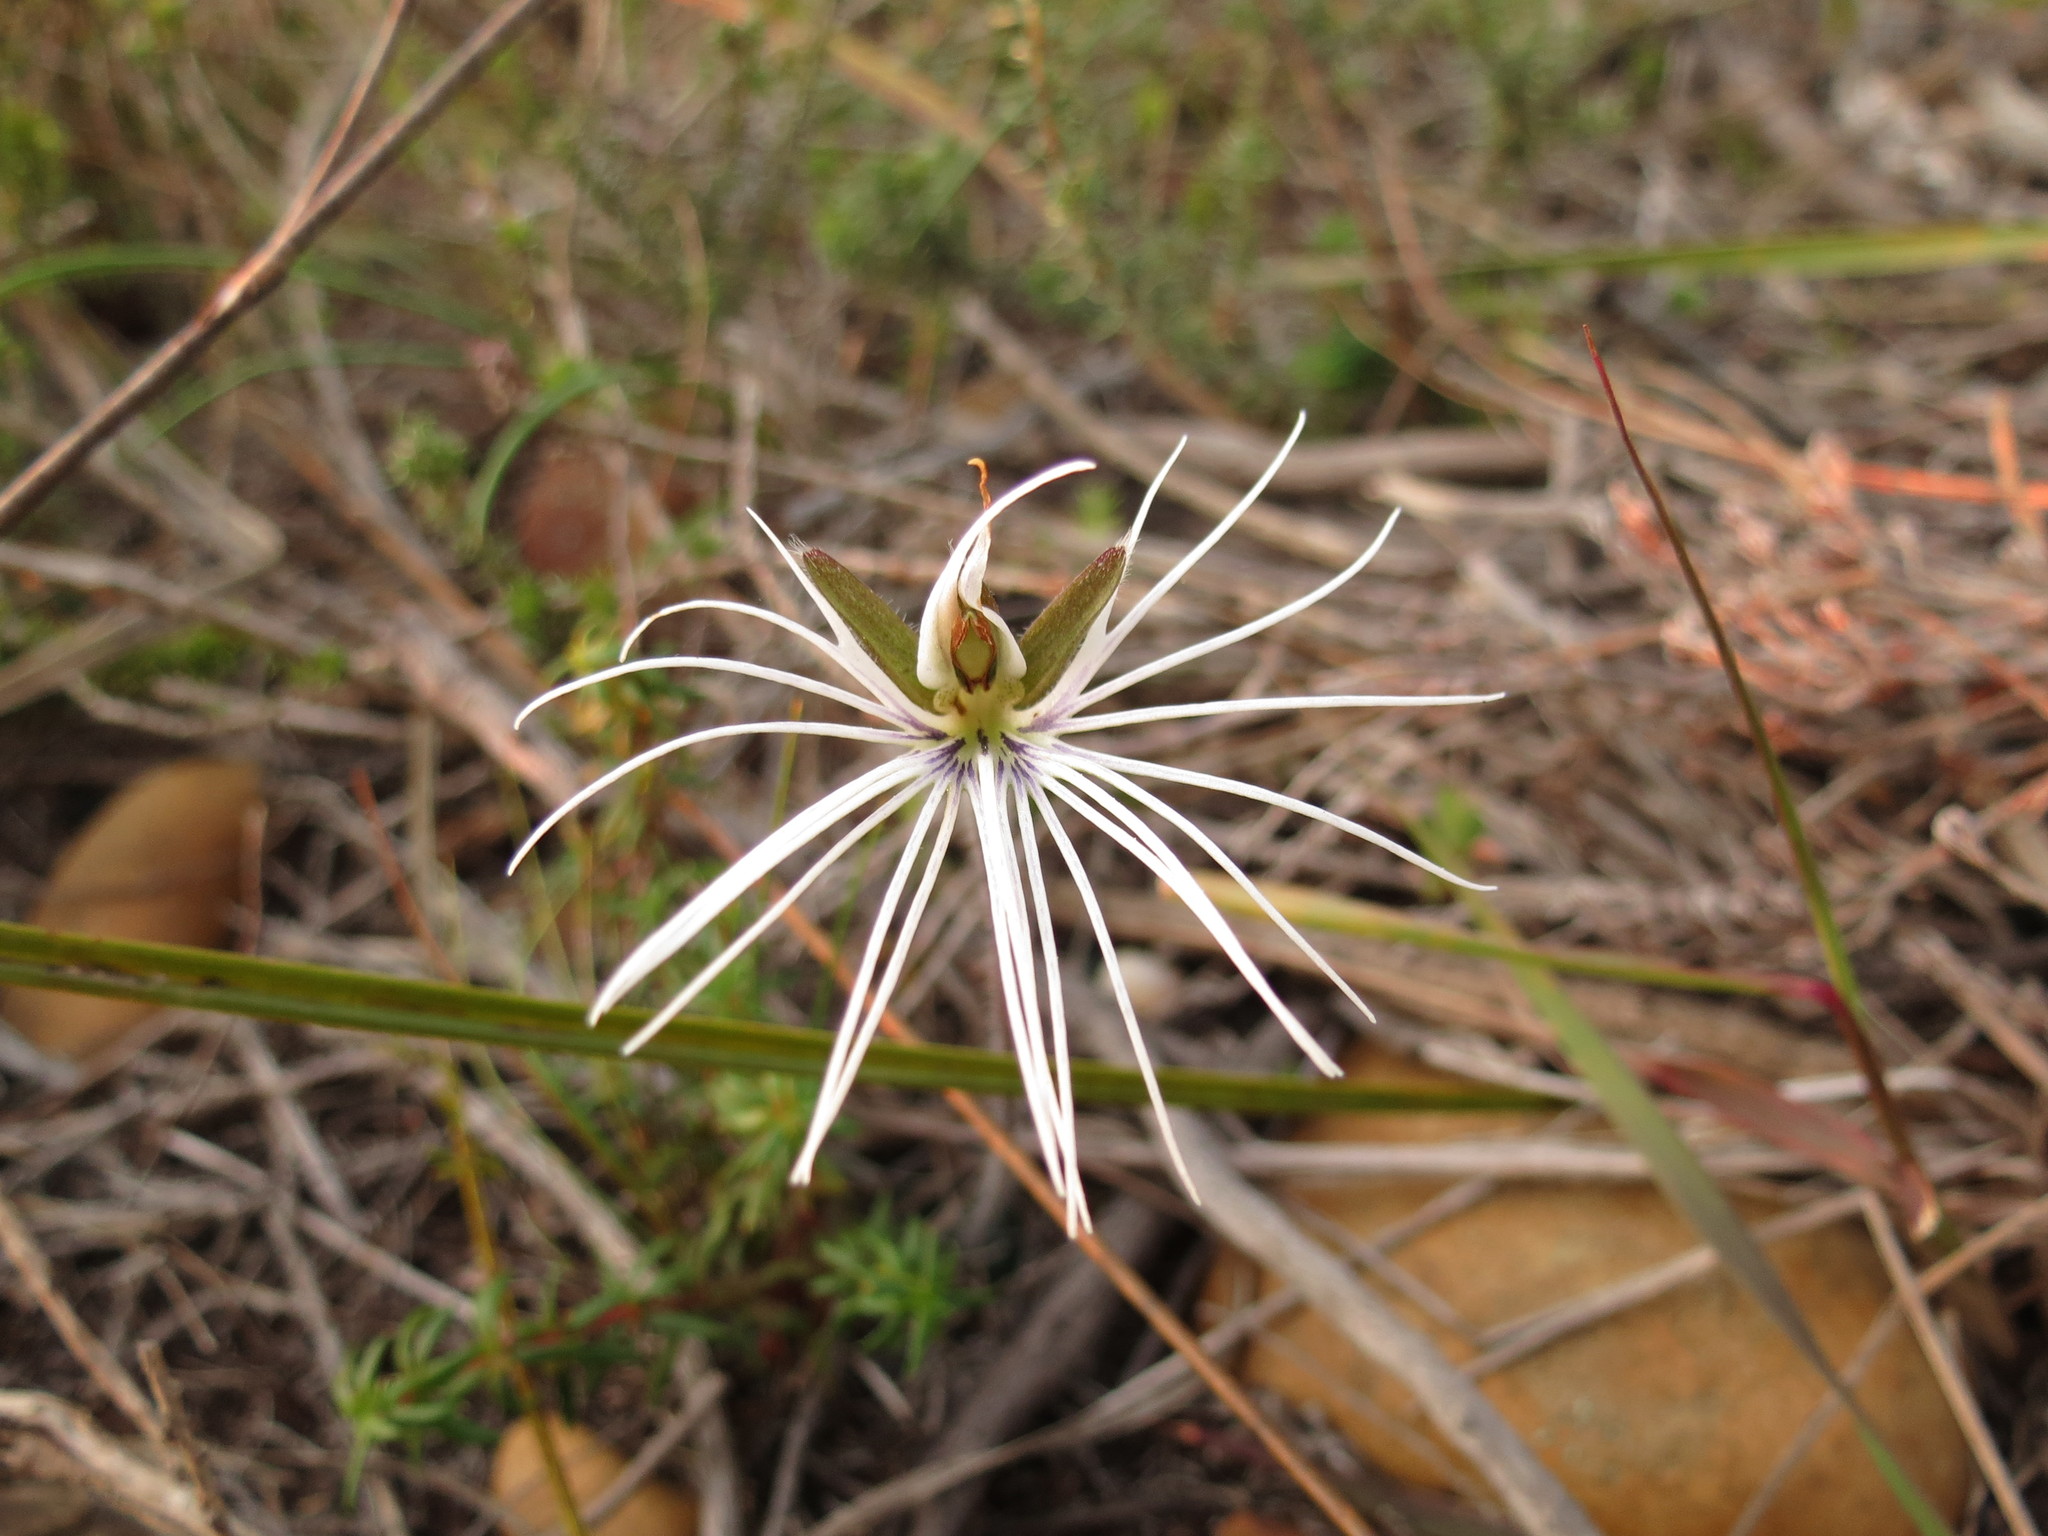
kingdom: Plantae
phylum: Tracheophyta
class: Liliopsida
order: Asparagales
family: Orchidaceae
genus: Holothrix
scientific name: Holothrix burmanniana
